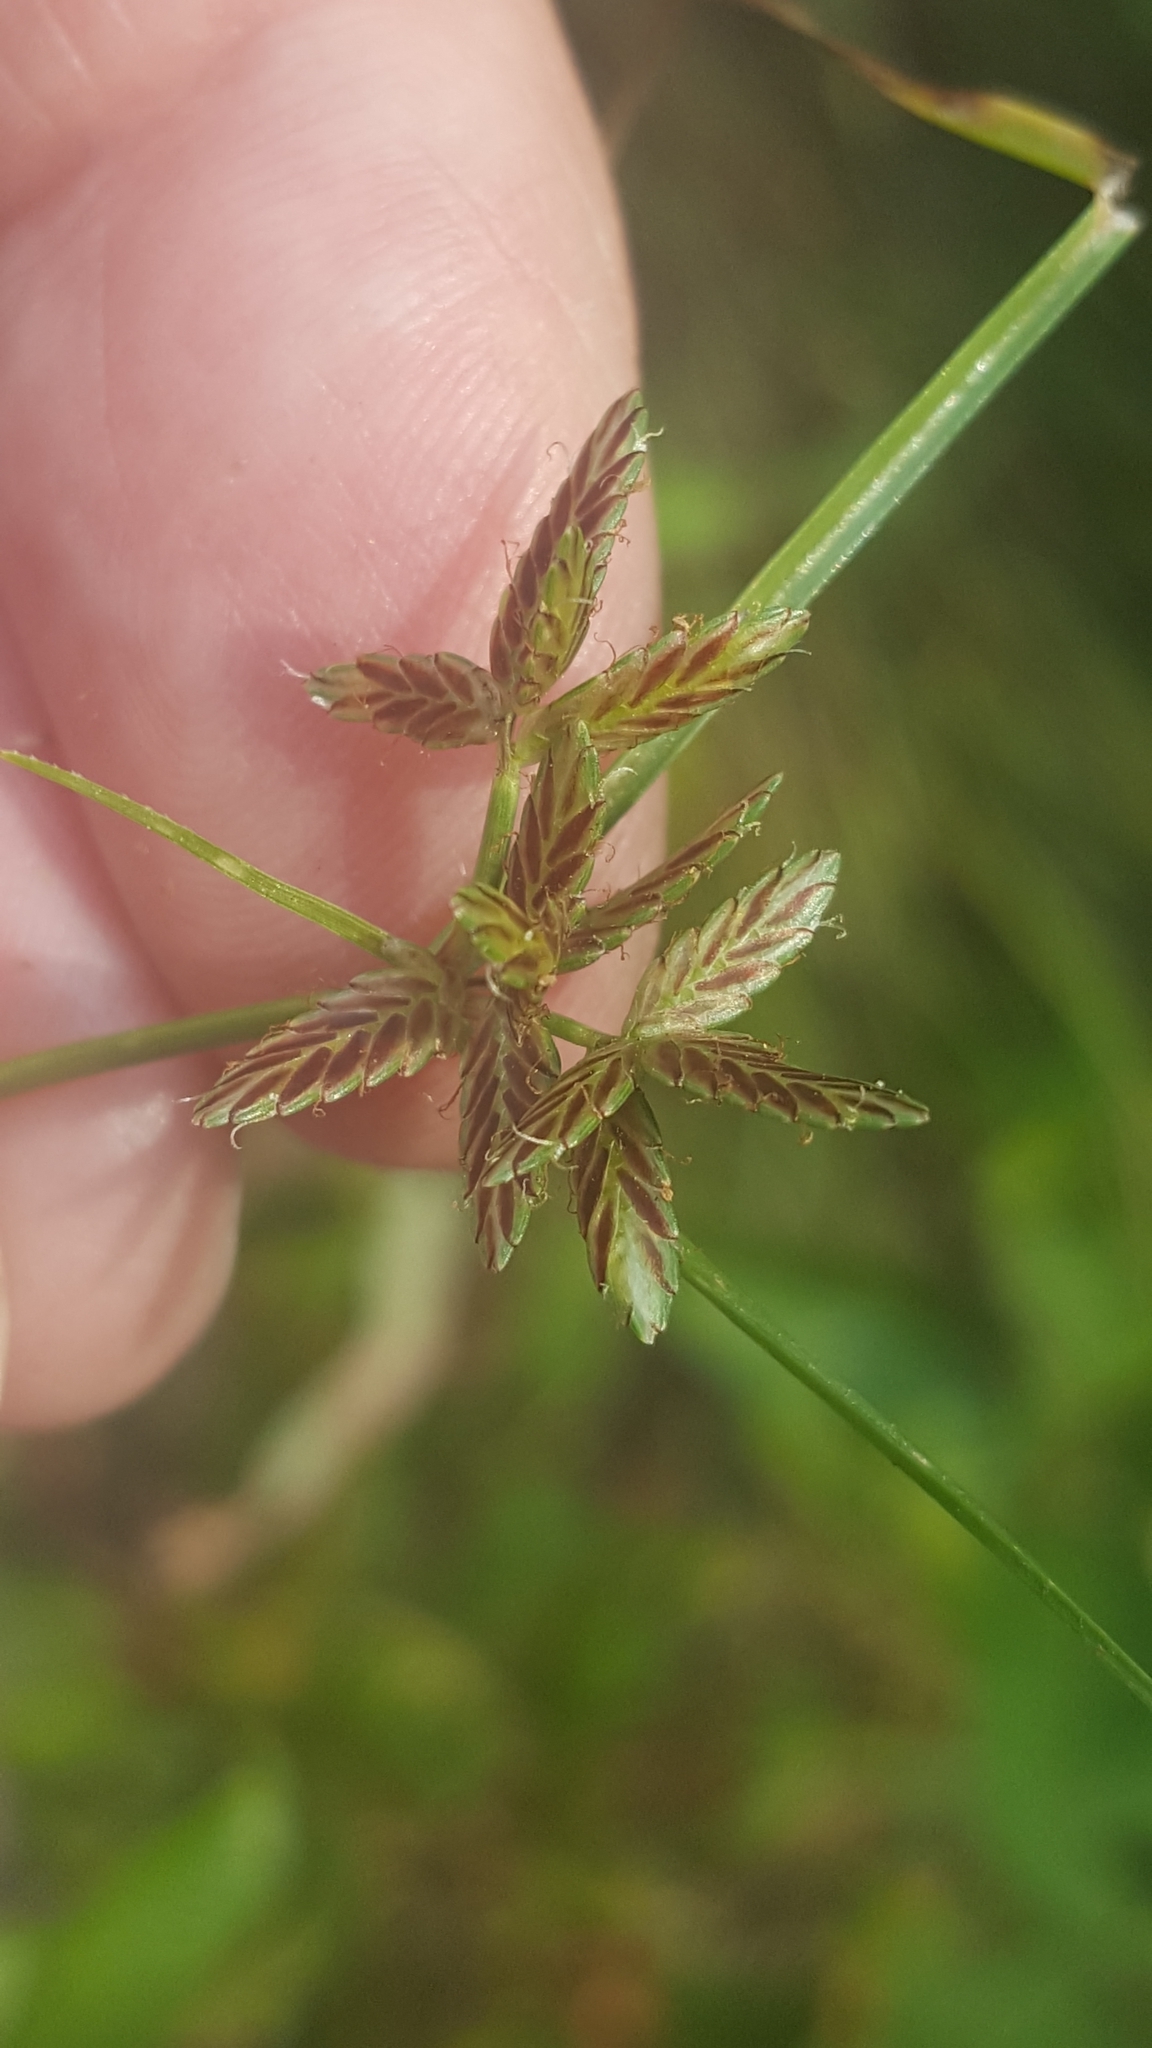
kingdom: Plantae
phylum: Tracheophyta
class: Liliopsida
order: Poales
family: Cyperaceae
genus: Cyperus
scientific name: Cyperus bipartitus
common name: Brook flatsedge
